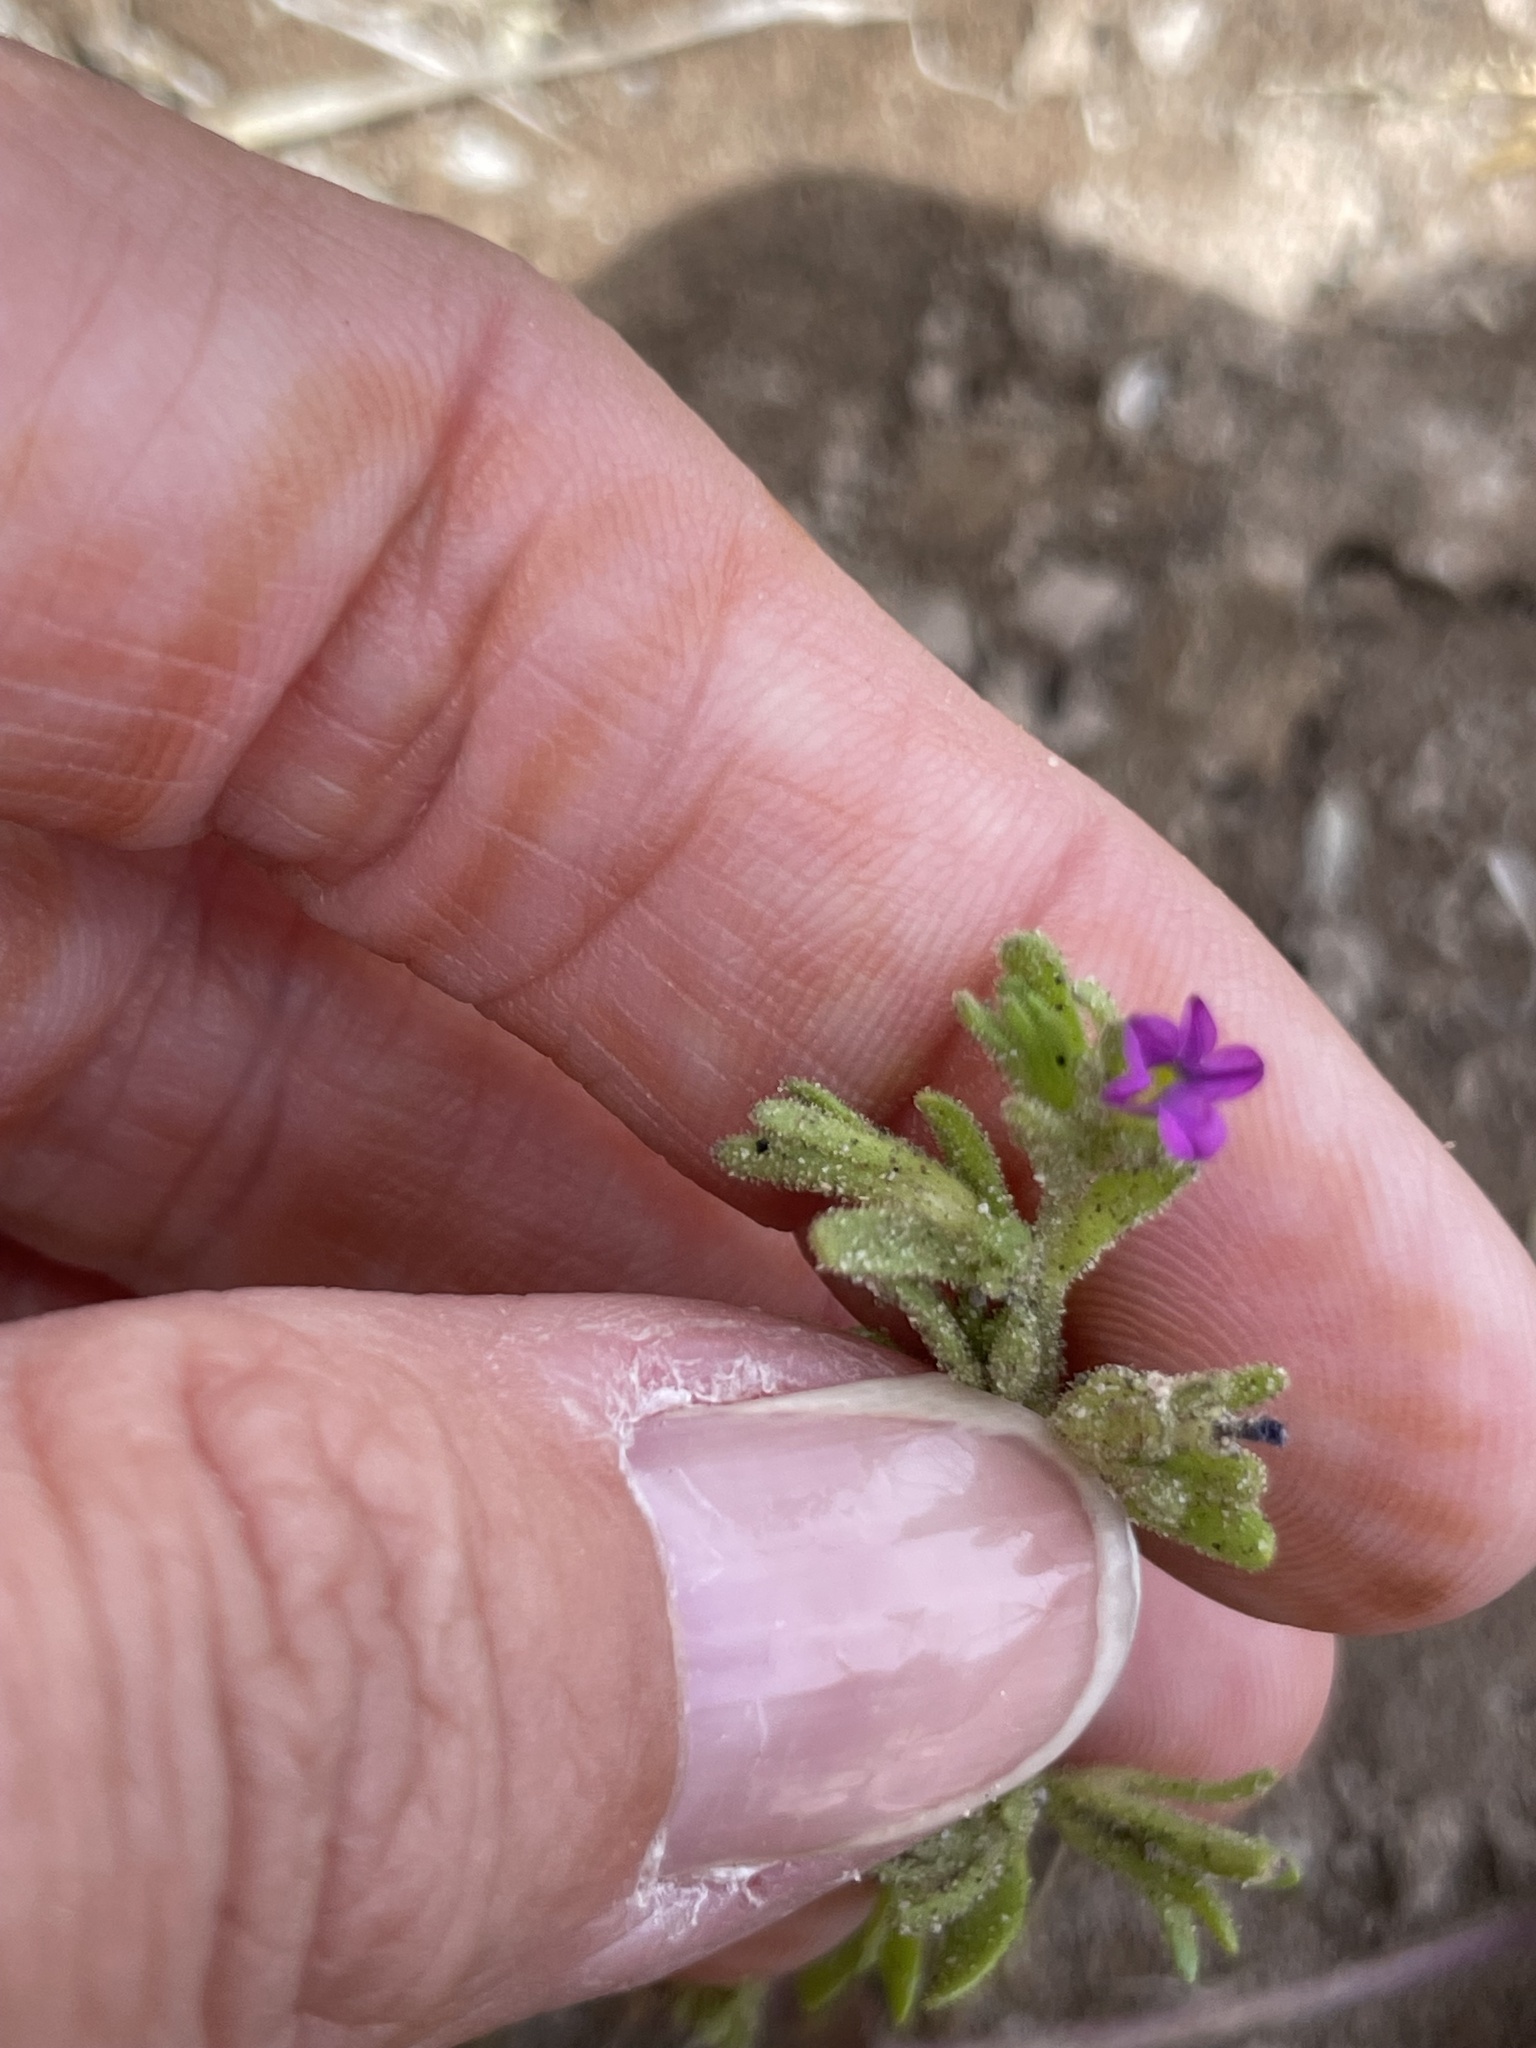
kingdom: Plantae
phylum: Tracheophyta
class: Magnoliopsida
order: Solanales
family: Solanaceae
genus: Calibrachoa
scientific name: Calibrachoa parviflora
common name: Seaside petunia
